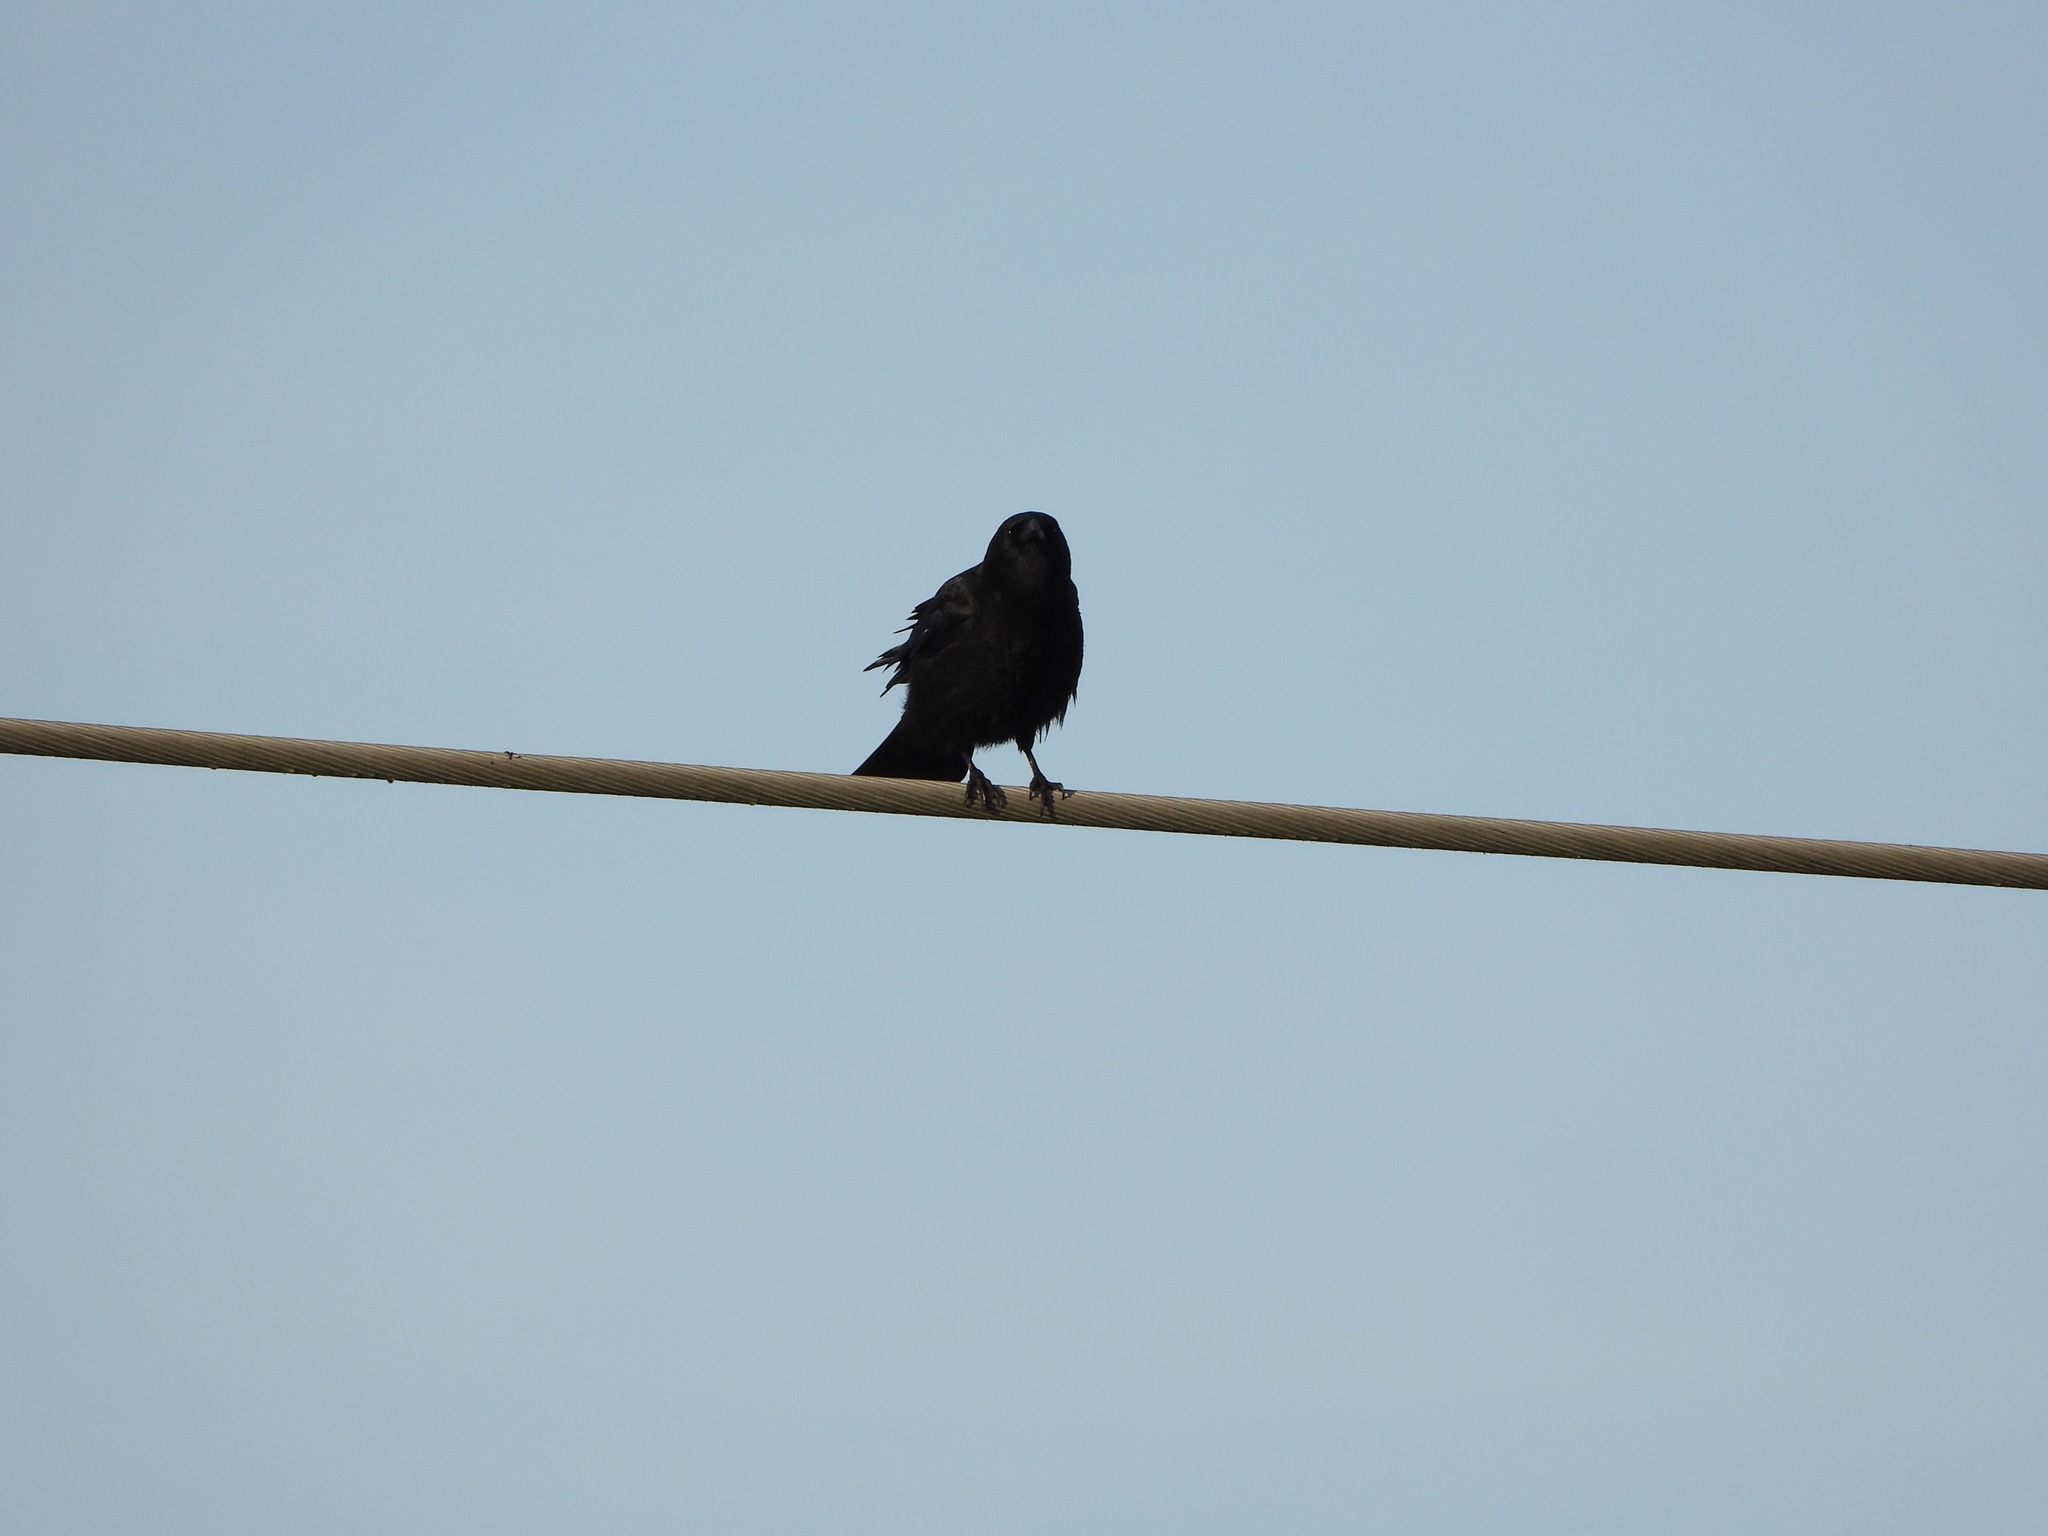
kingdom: Animalia
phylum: Chordata
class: Aves
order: Passeriformes
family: Corvidae
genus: Corvus
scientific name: Corvus brachyrhynchos
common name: American crow
